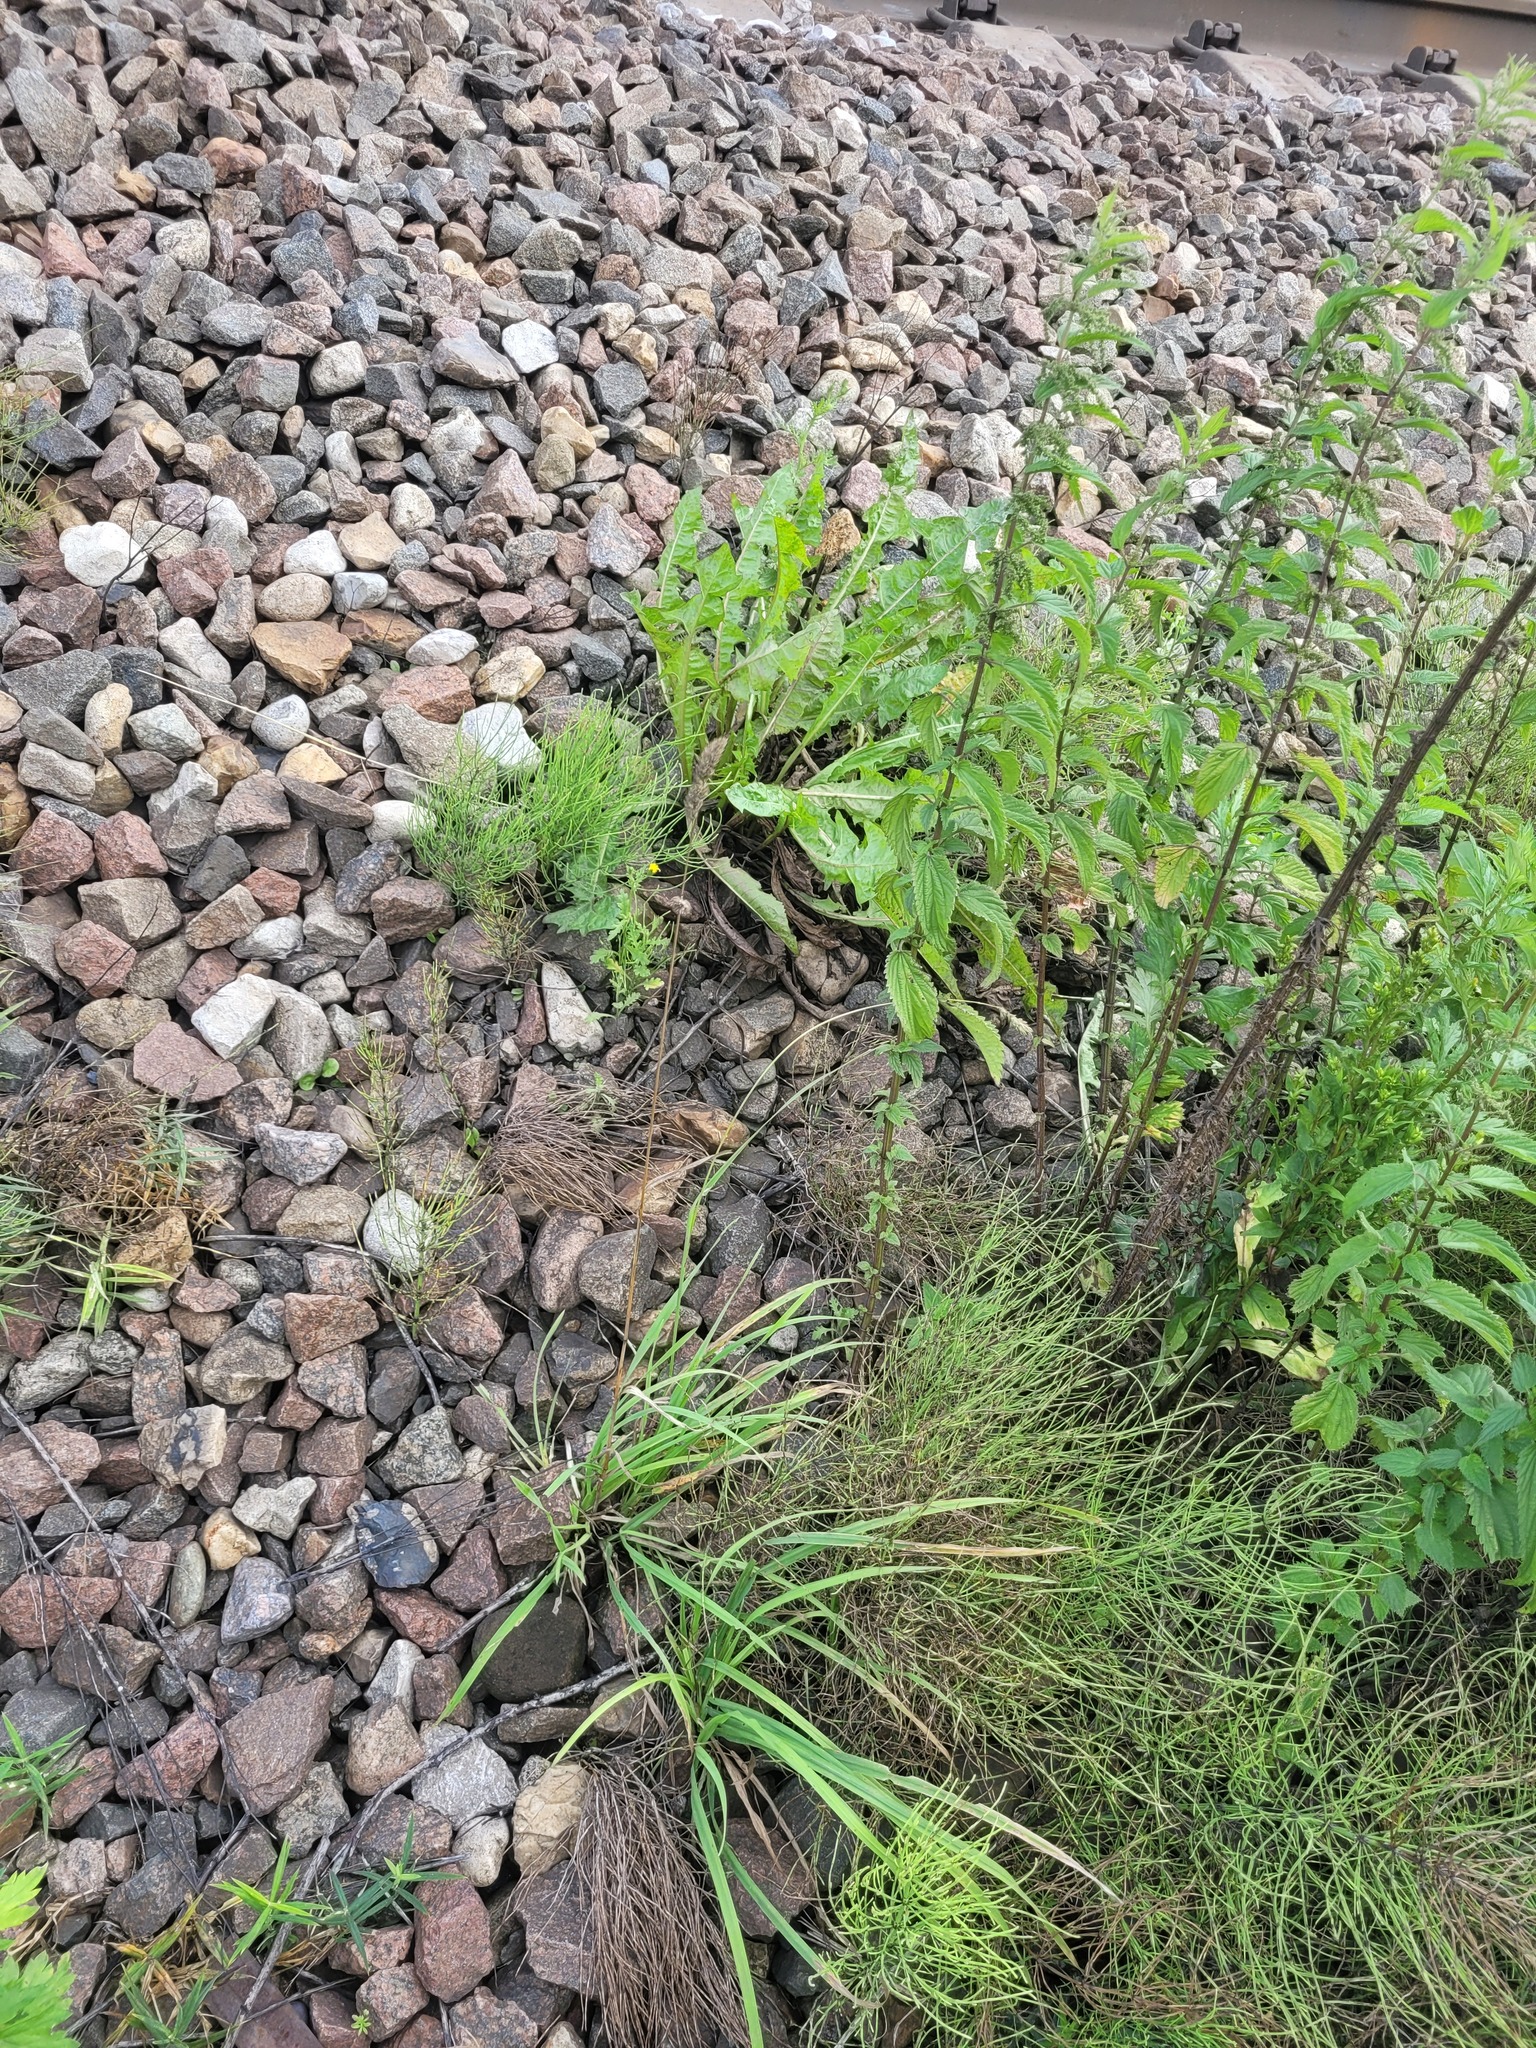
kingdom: Plantae
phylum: Tracheophyta
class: Liliopsida
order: Poales
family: Poaceae
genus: Dactylis
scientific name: Dactylis glomerata
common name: Orchardgrass
